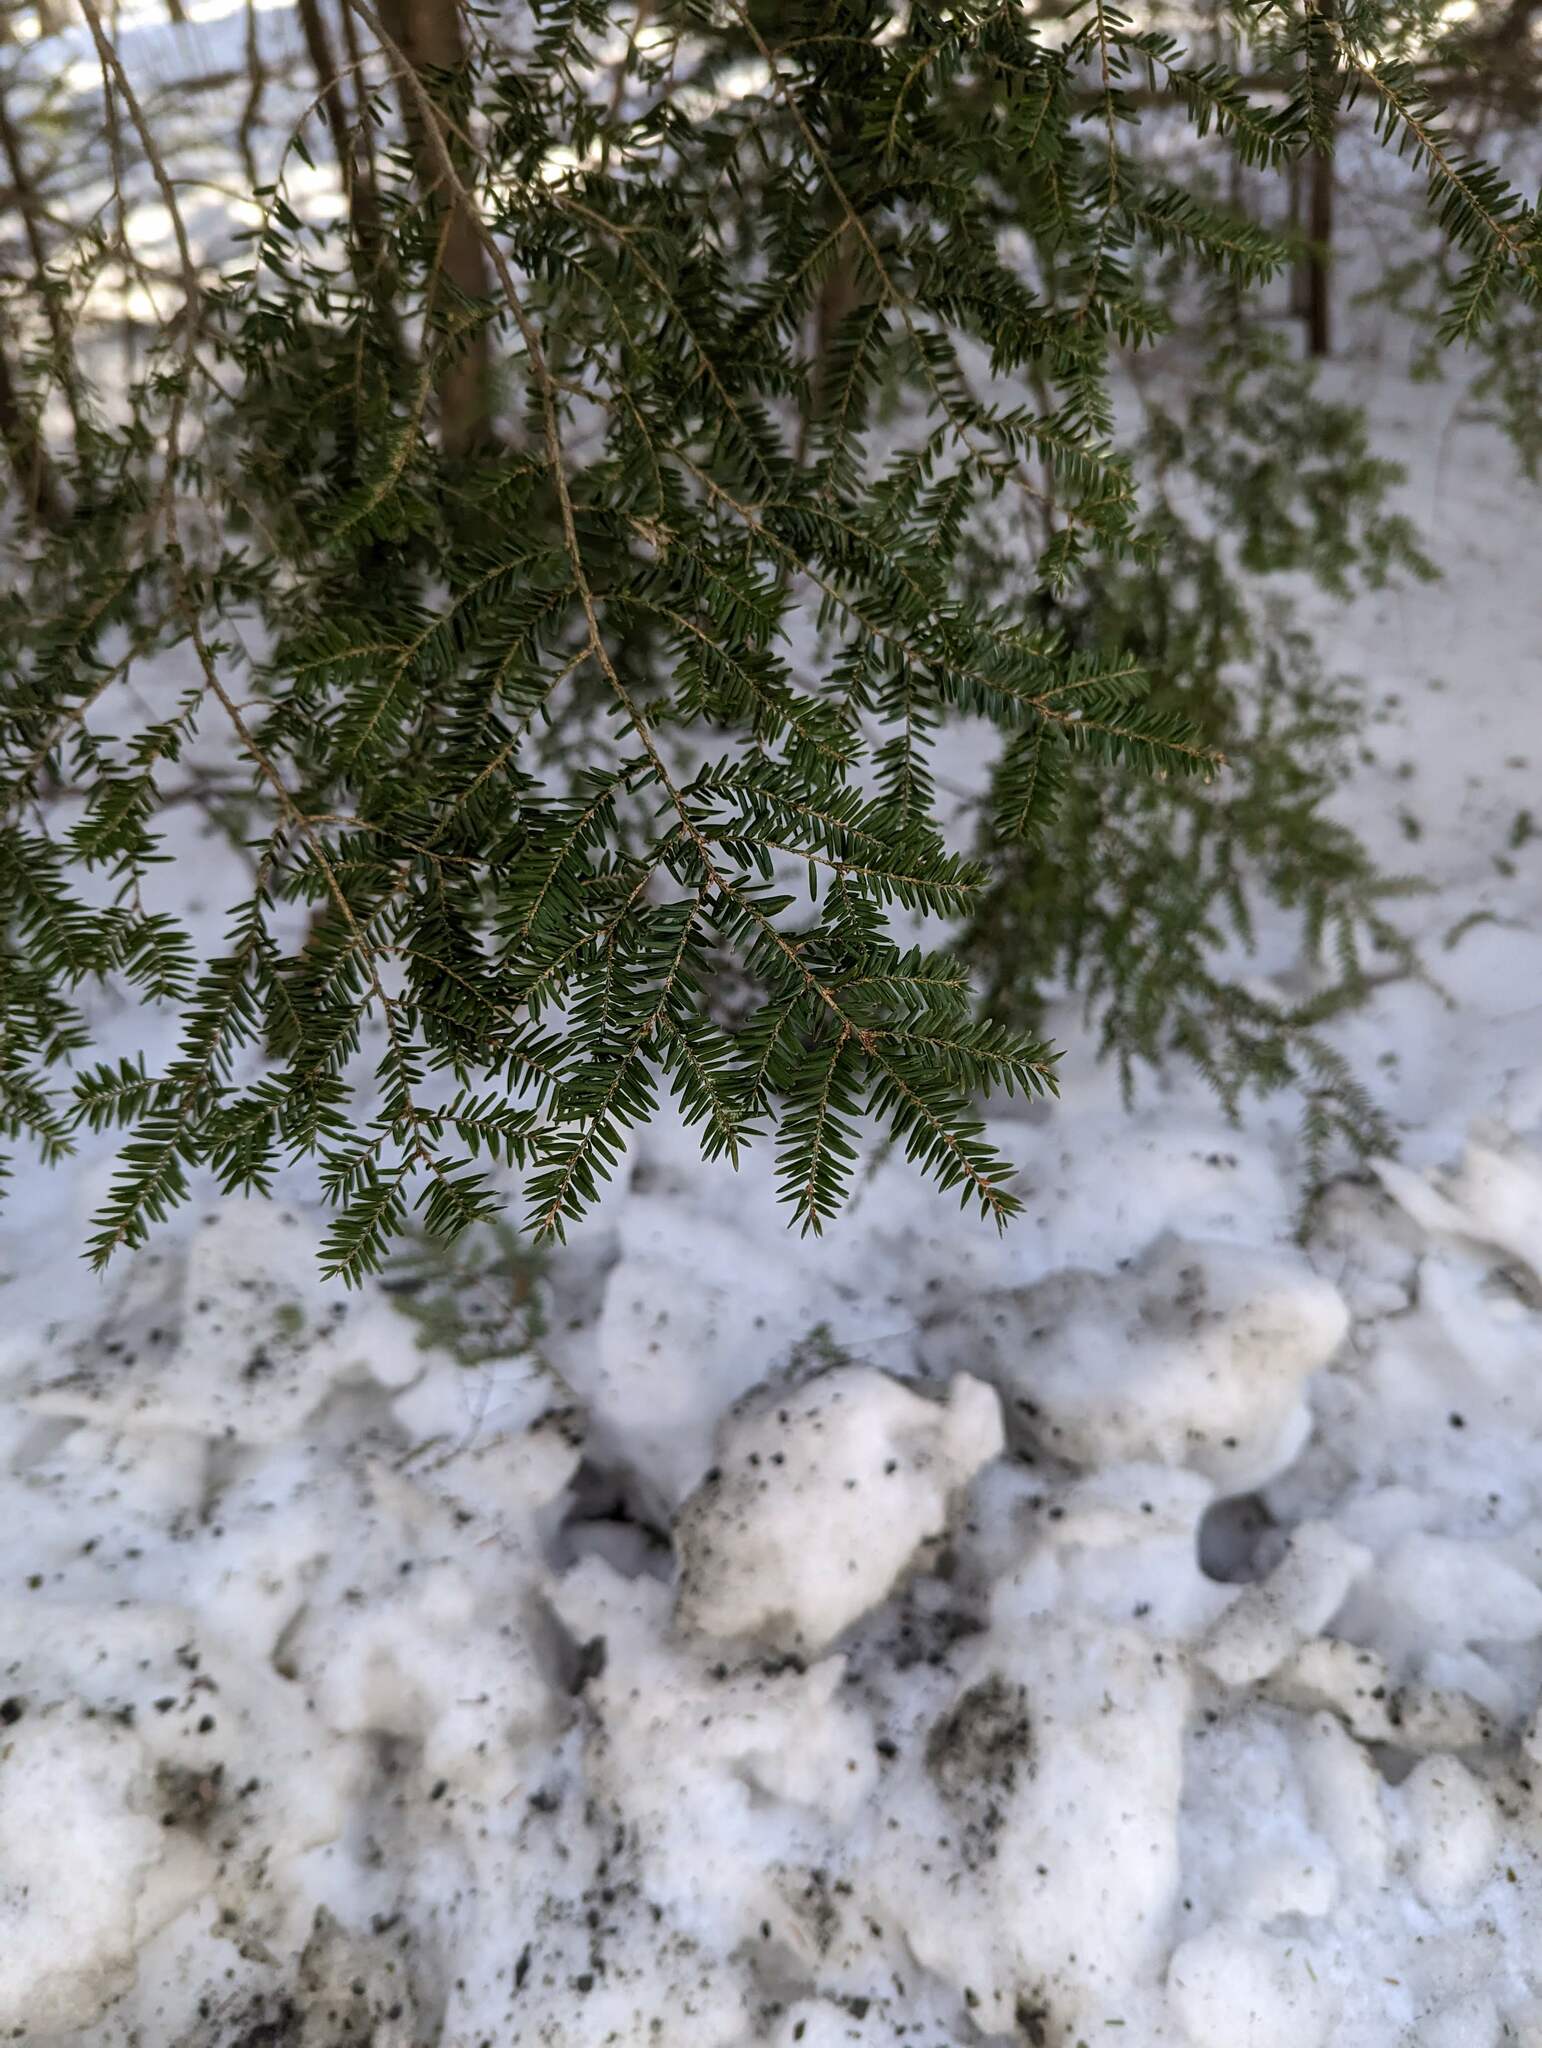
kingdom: Plantae
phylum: Tracheophyta
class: Pinopsida
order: Pinales
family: Pinaceae
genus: Tsuga
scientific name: Tsuga canadensis
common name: Eastern hemlock
